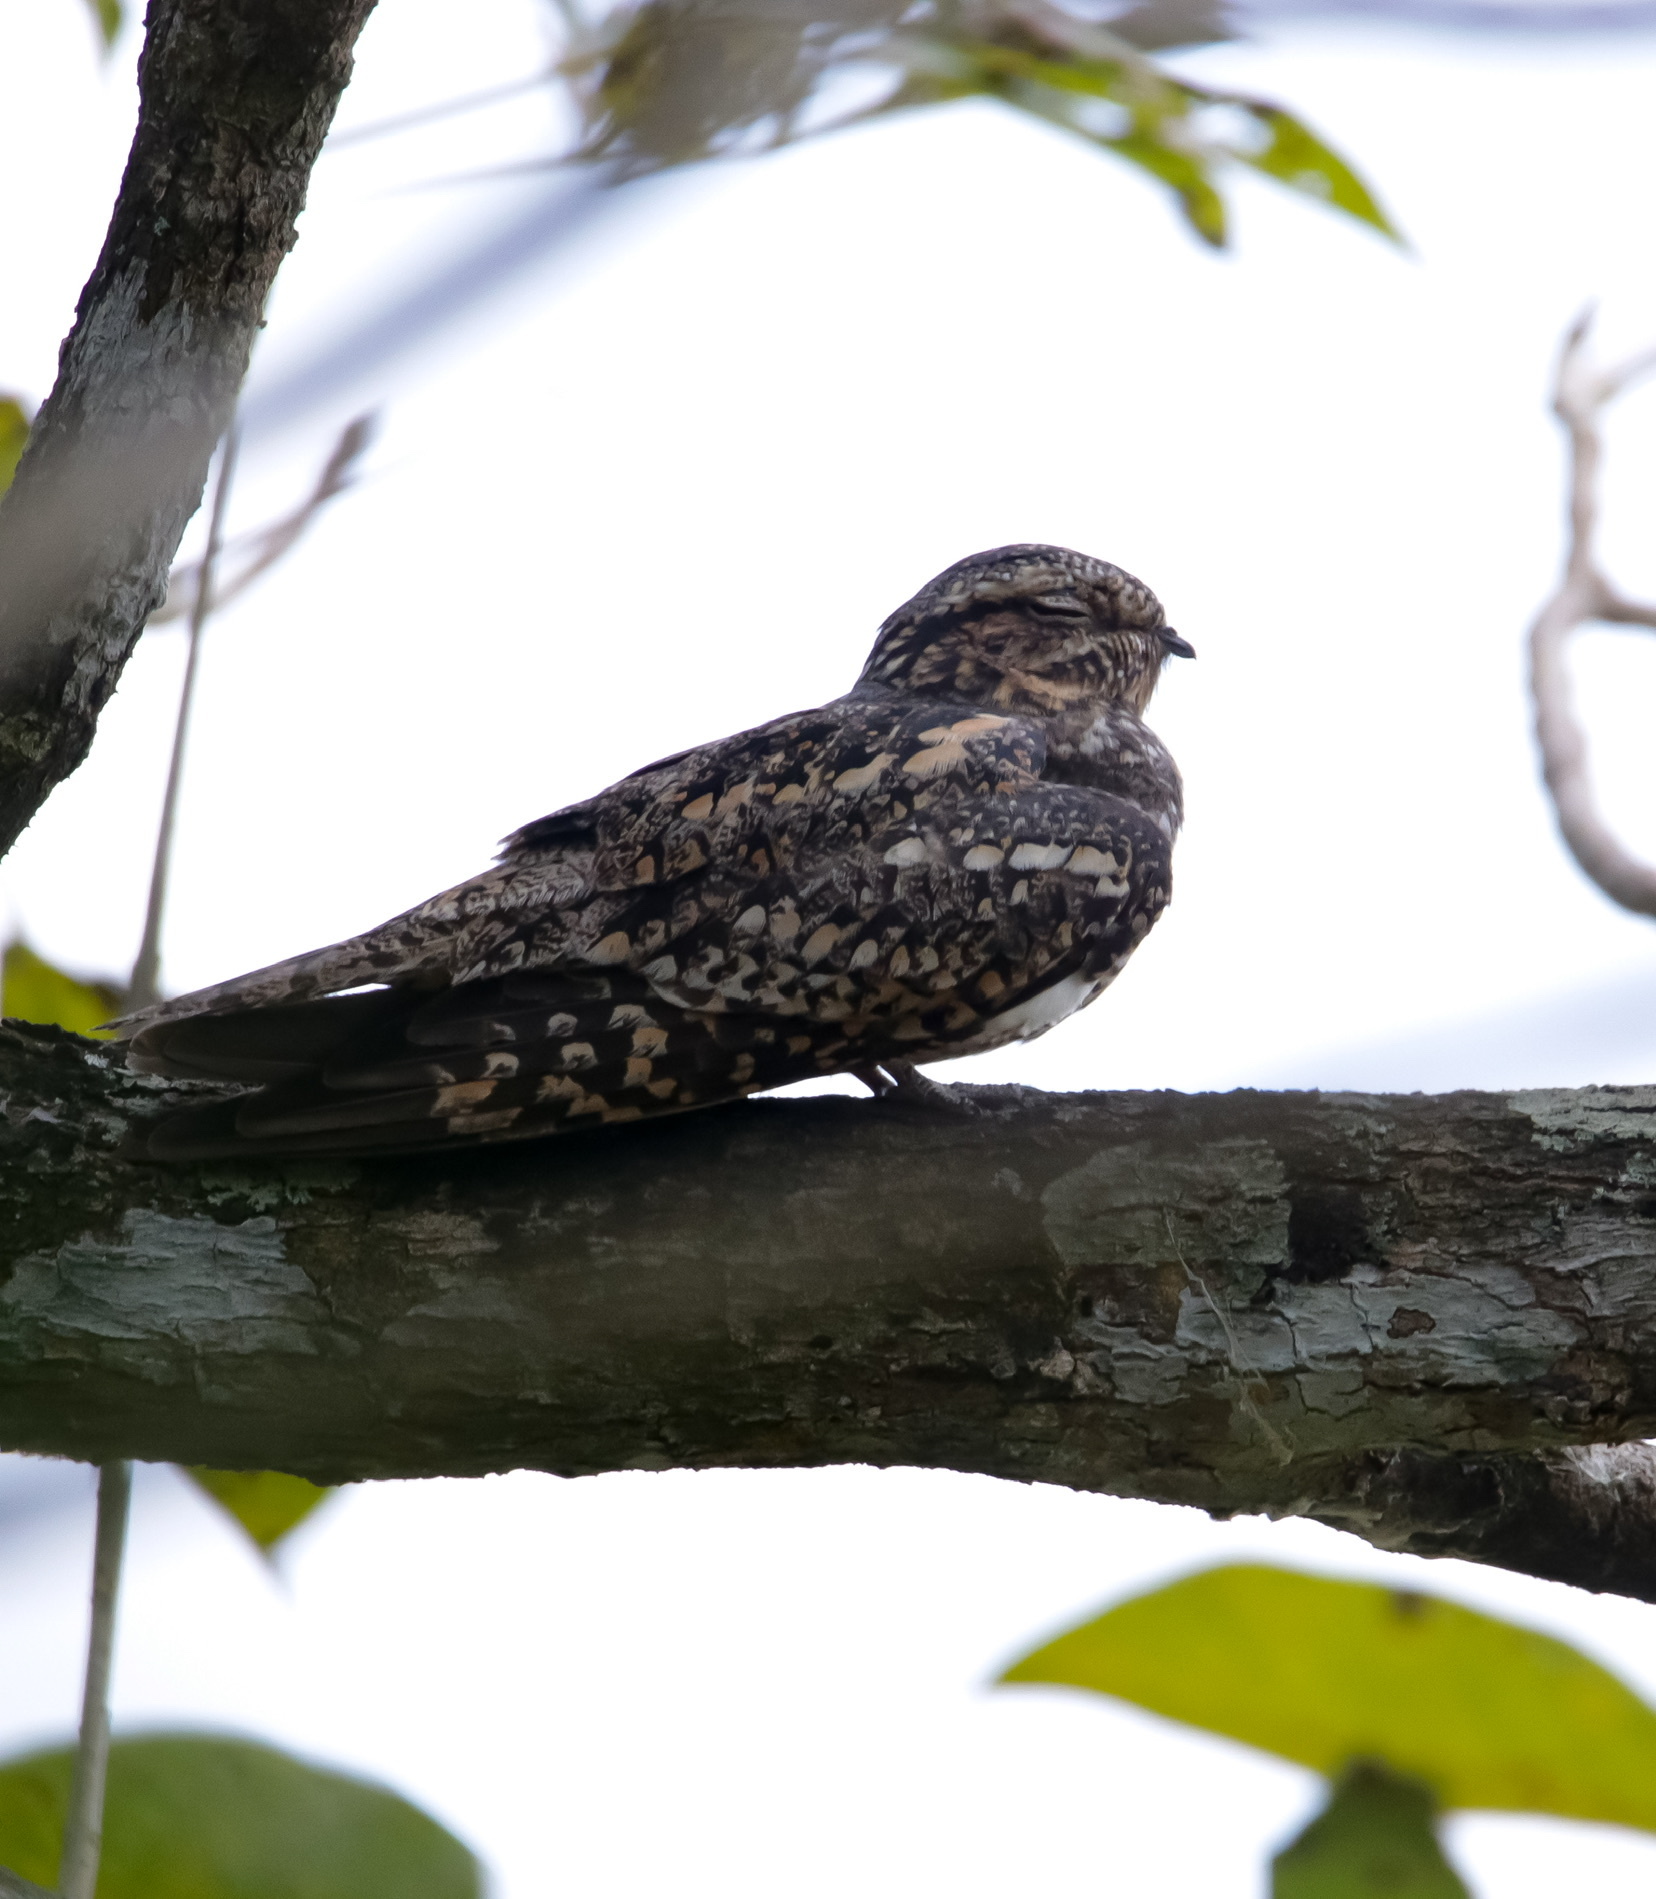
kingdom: Animalia
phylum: Chordata
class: Aves
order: Caprimulgiformes
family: Caprimulgidae
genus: Chordeiles
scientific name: Chordeiles acutipennis
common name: Lesser nighthawk
